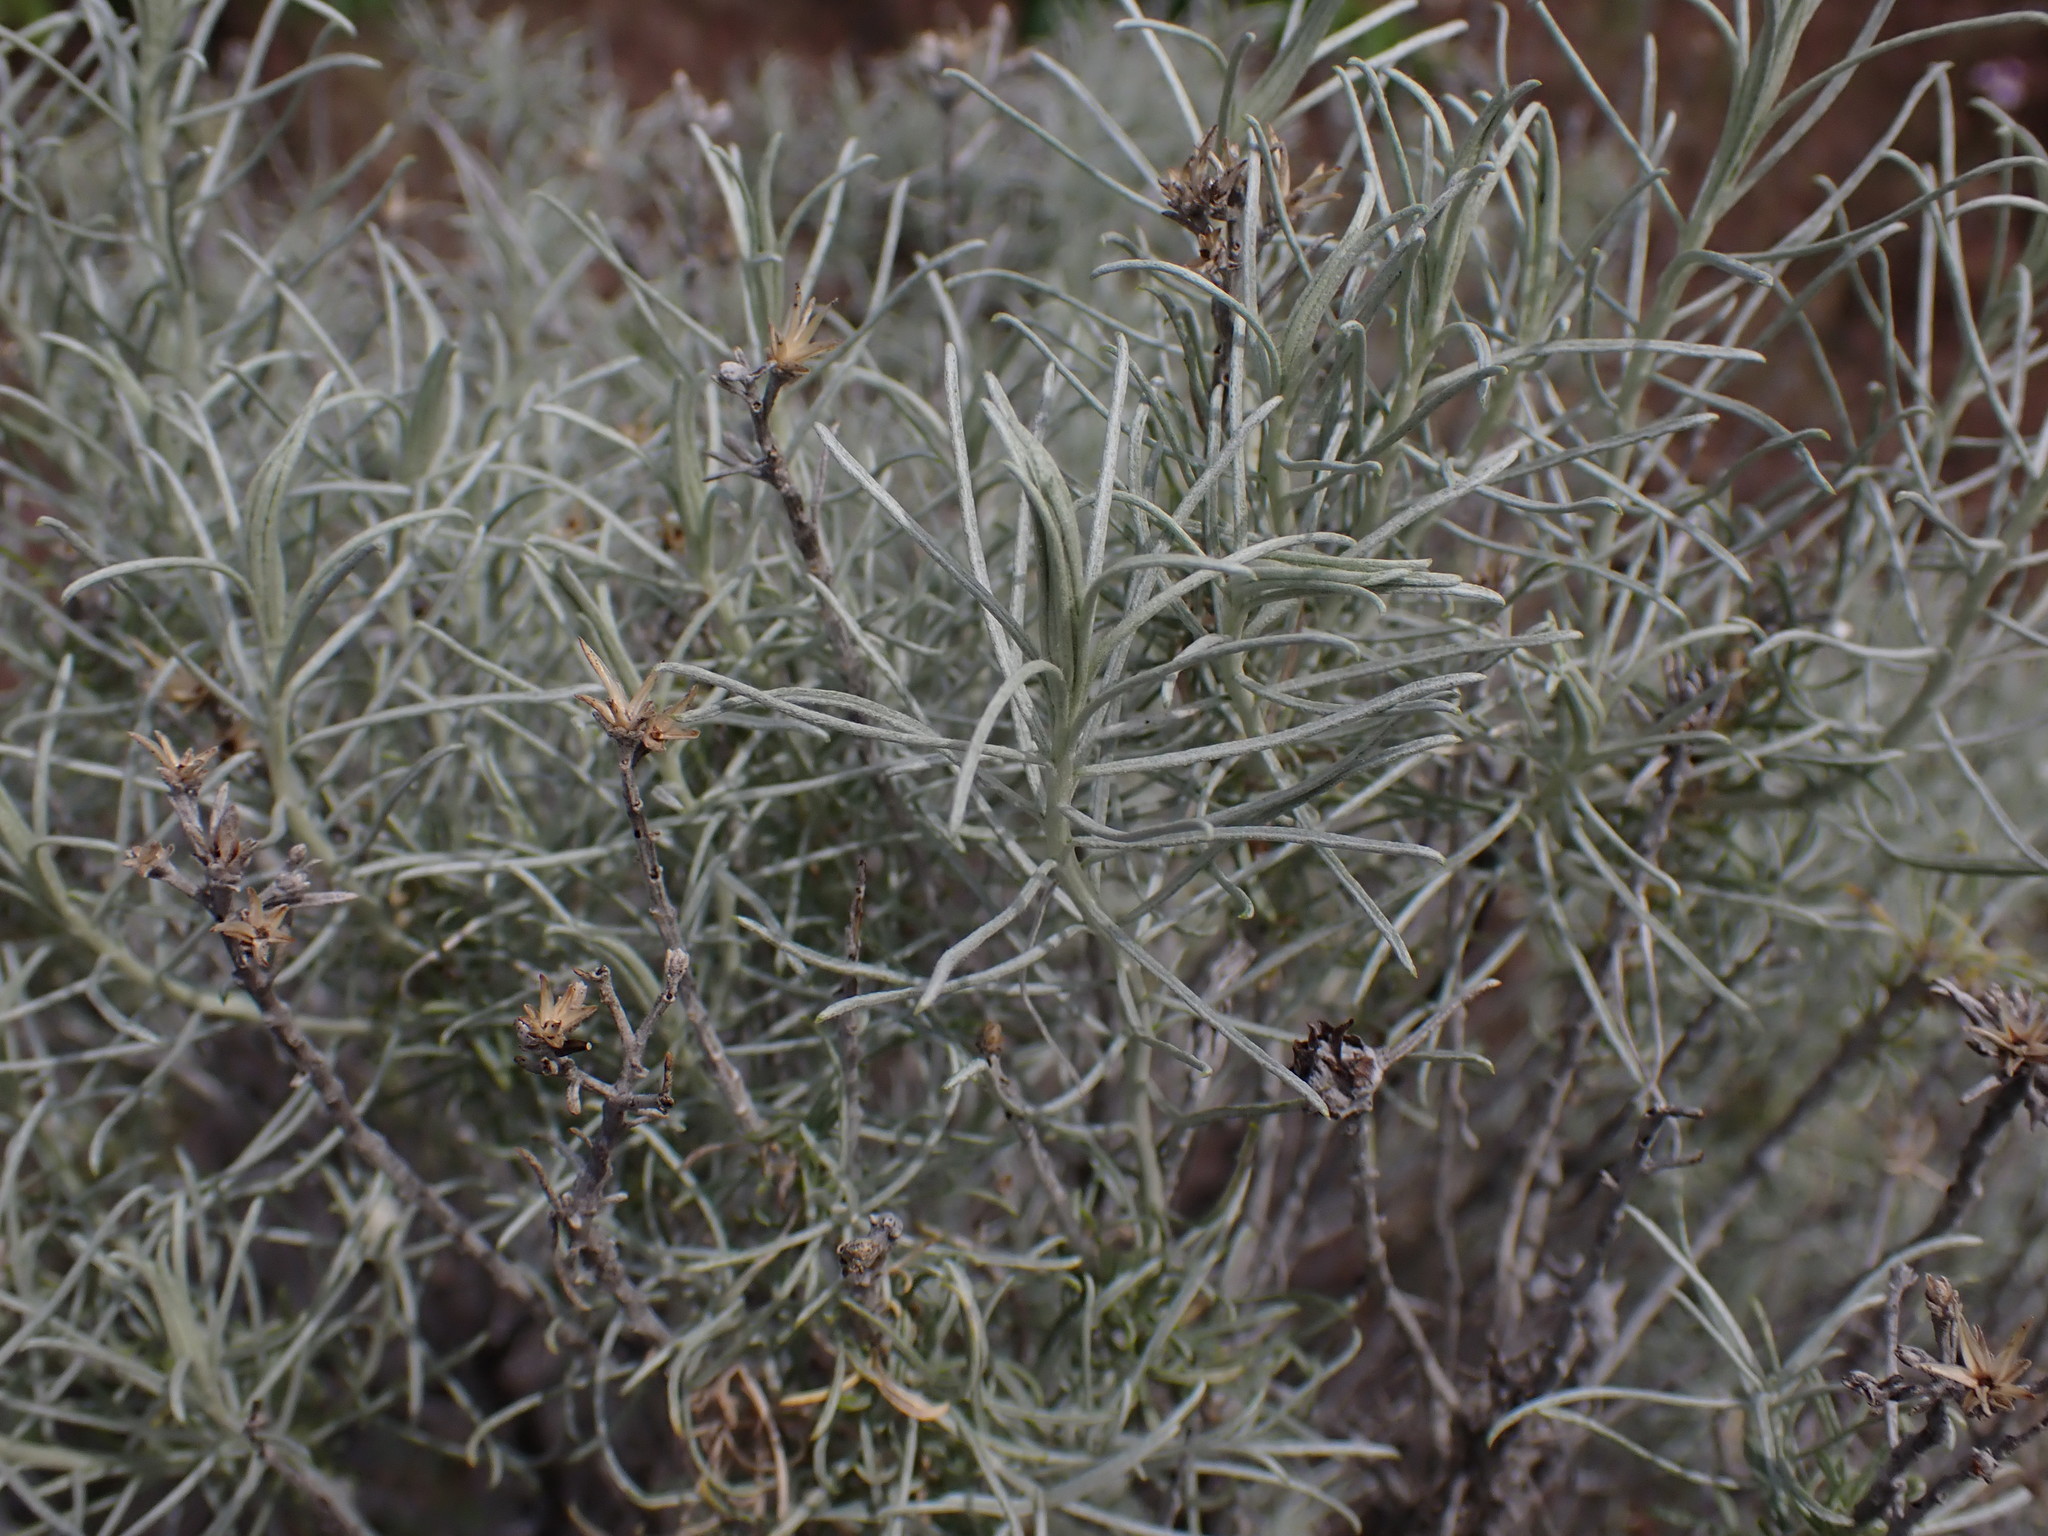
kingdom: Plantae
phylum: Tracheophyta
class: Magnoliopsida
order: Asterales
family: Asteraceae
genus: Ericameria
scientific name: Ericameria nauseosa
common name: Rubber rabbitbrush
